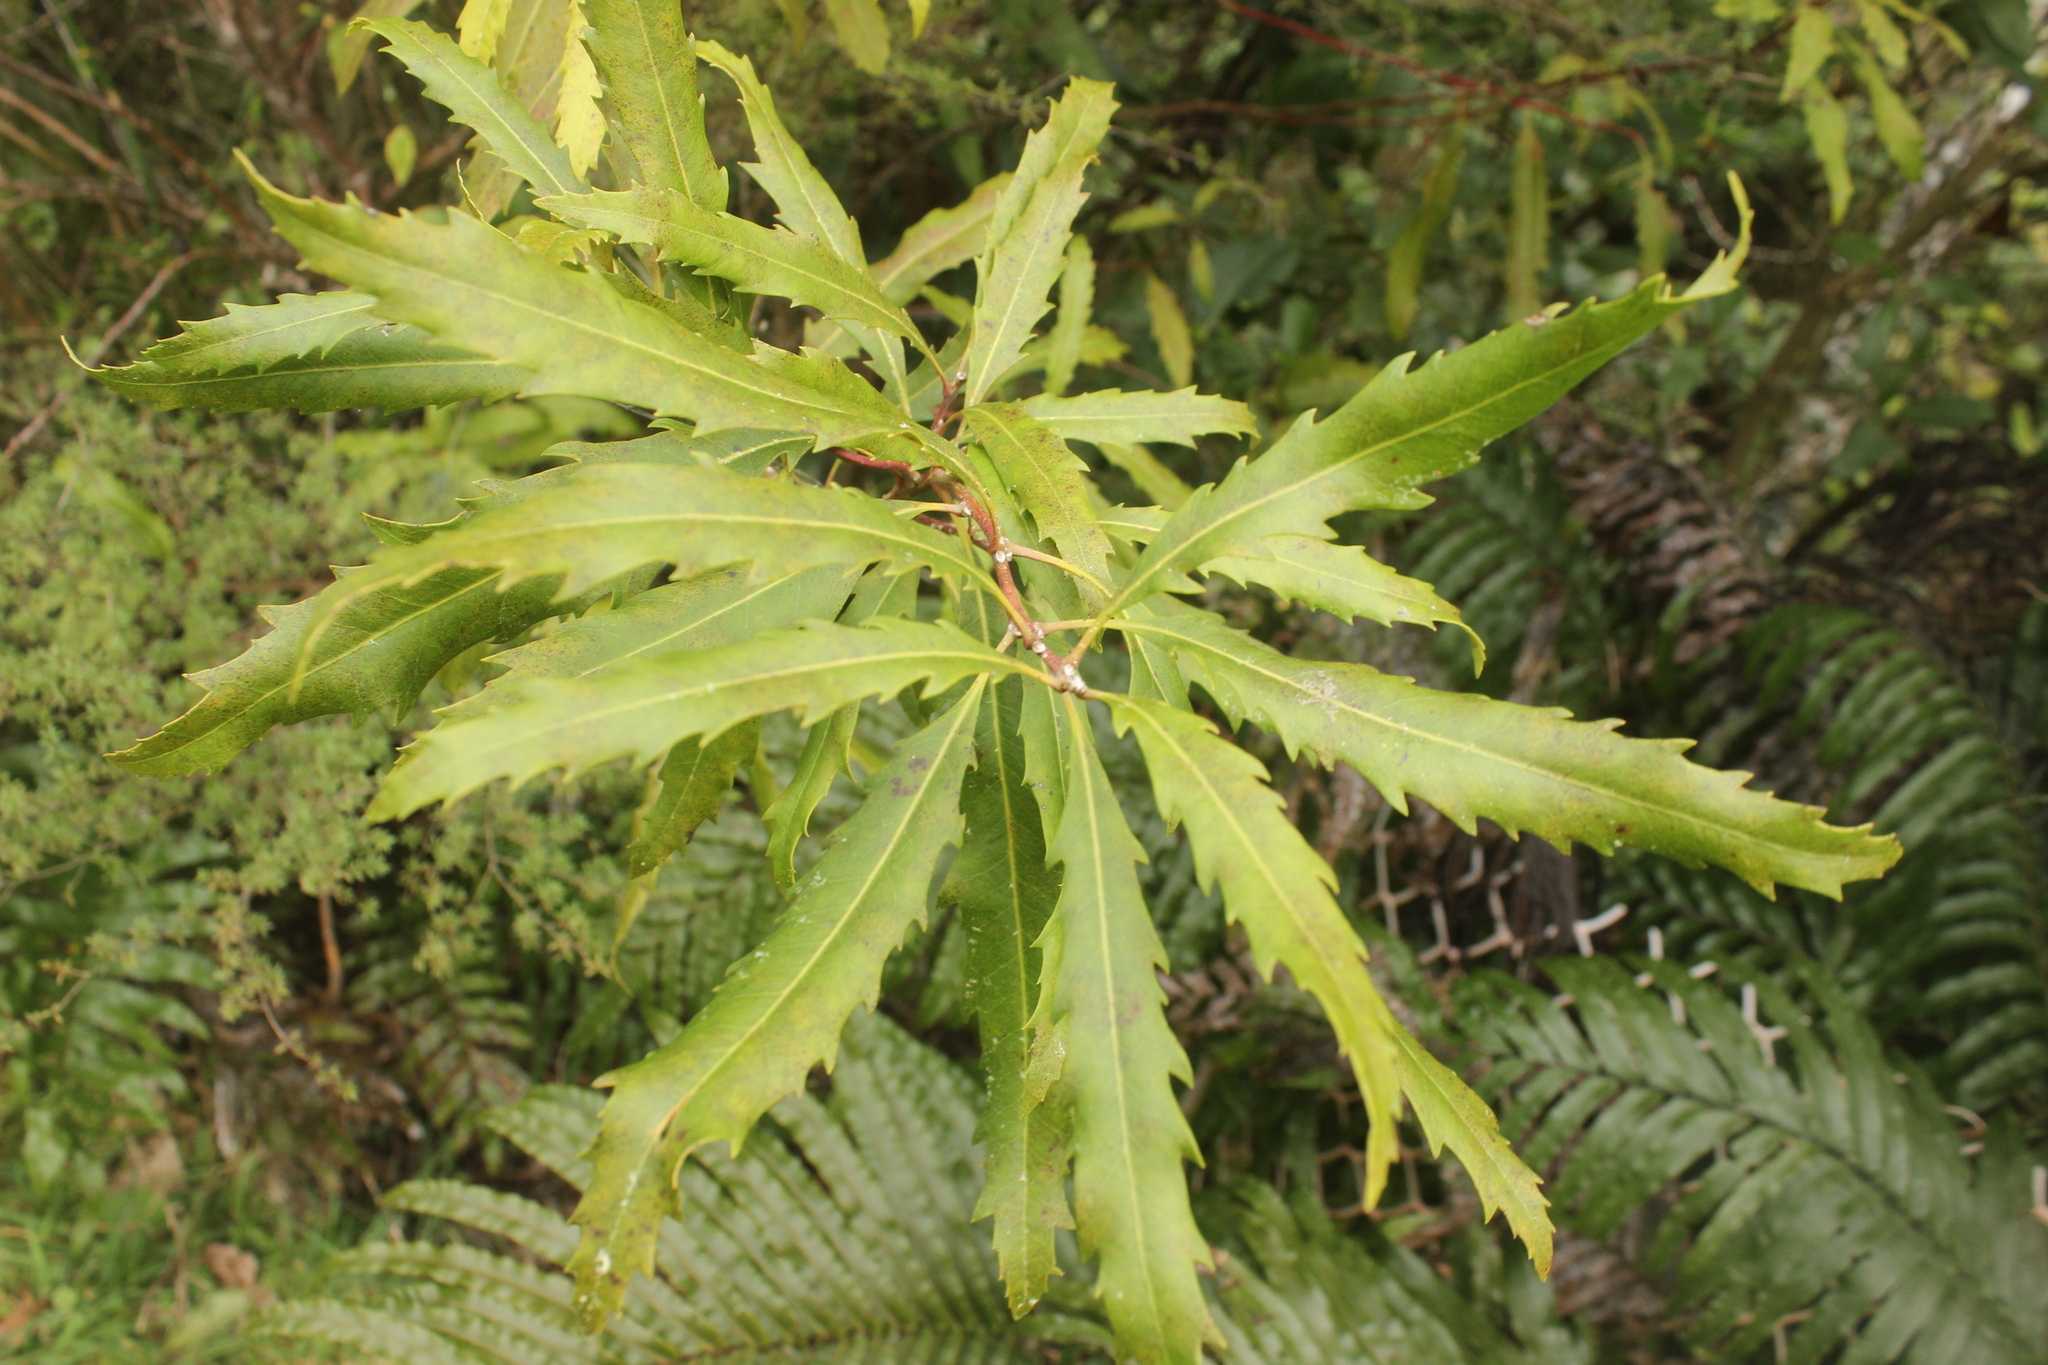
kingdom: Plantae
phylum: Tracheophyta
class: Magnoliopsida
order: Proteales
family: Proteaceae
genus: Lomatia
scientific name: Lomatia fraseri
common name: Forest lomatia
